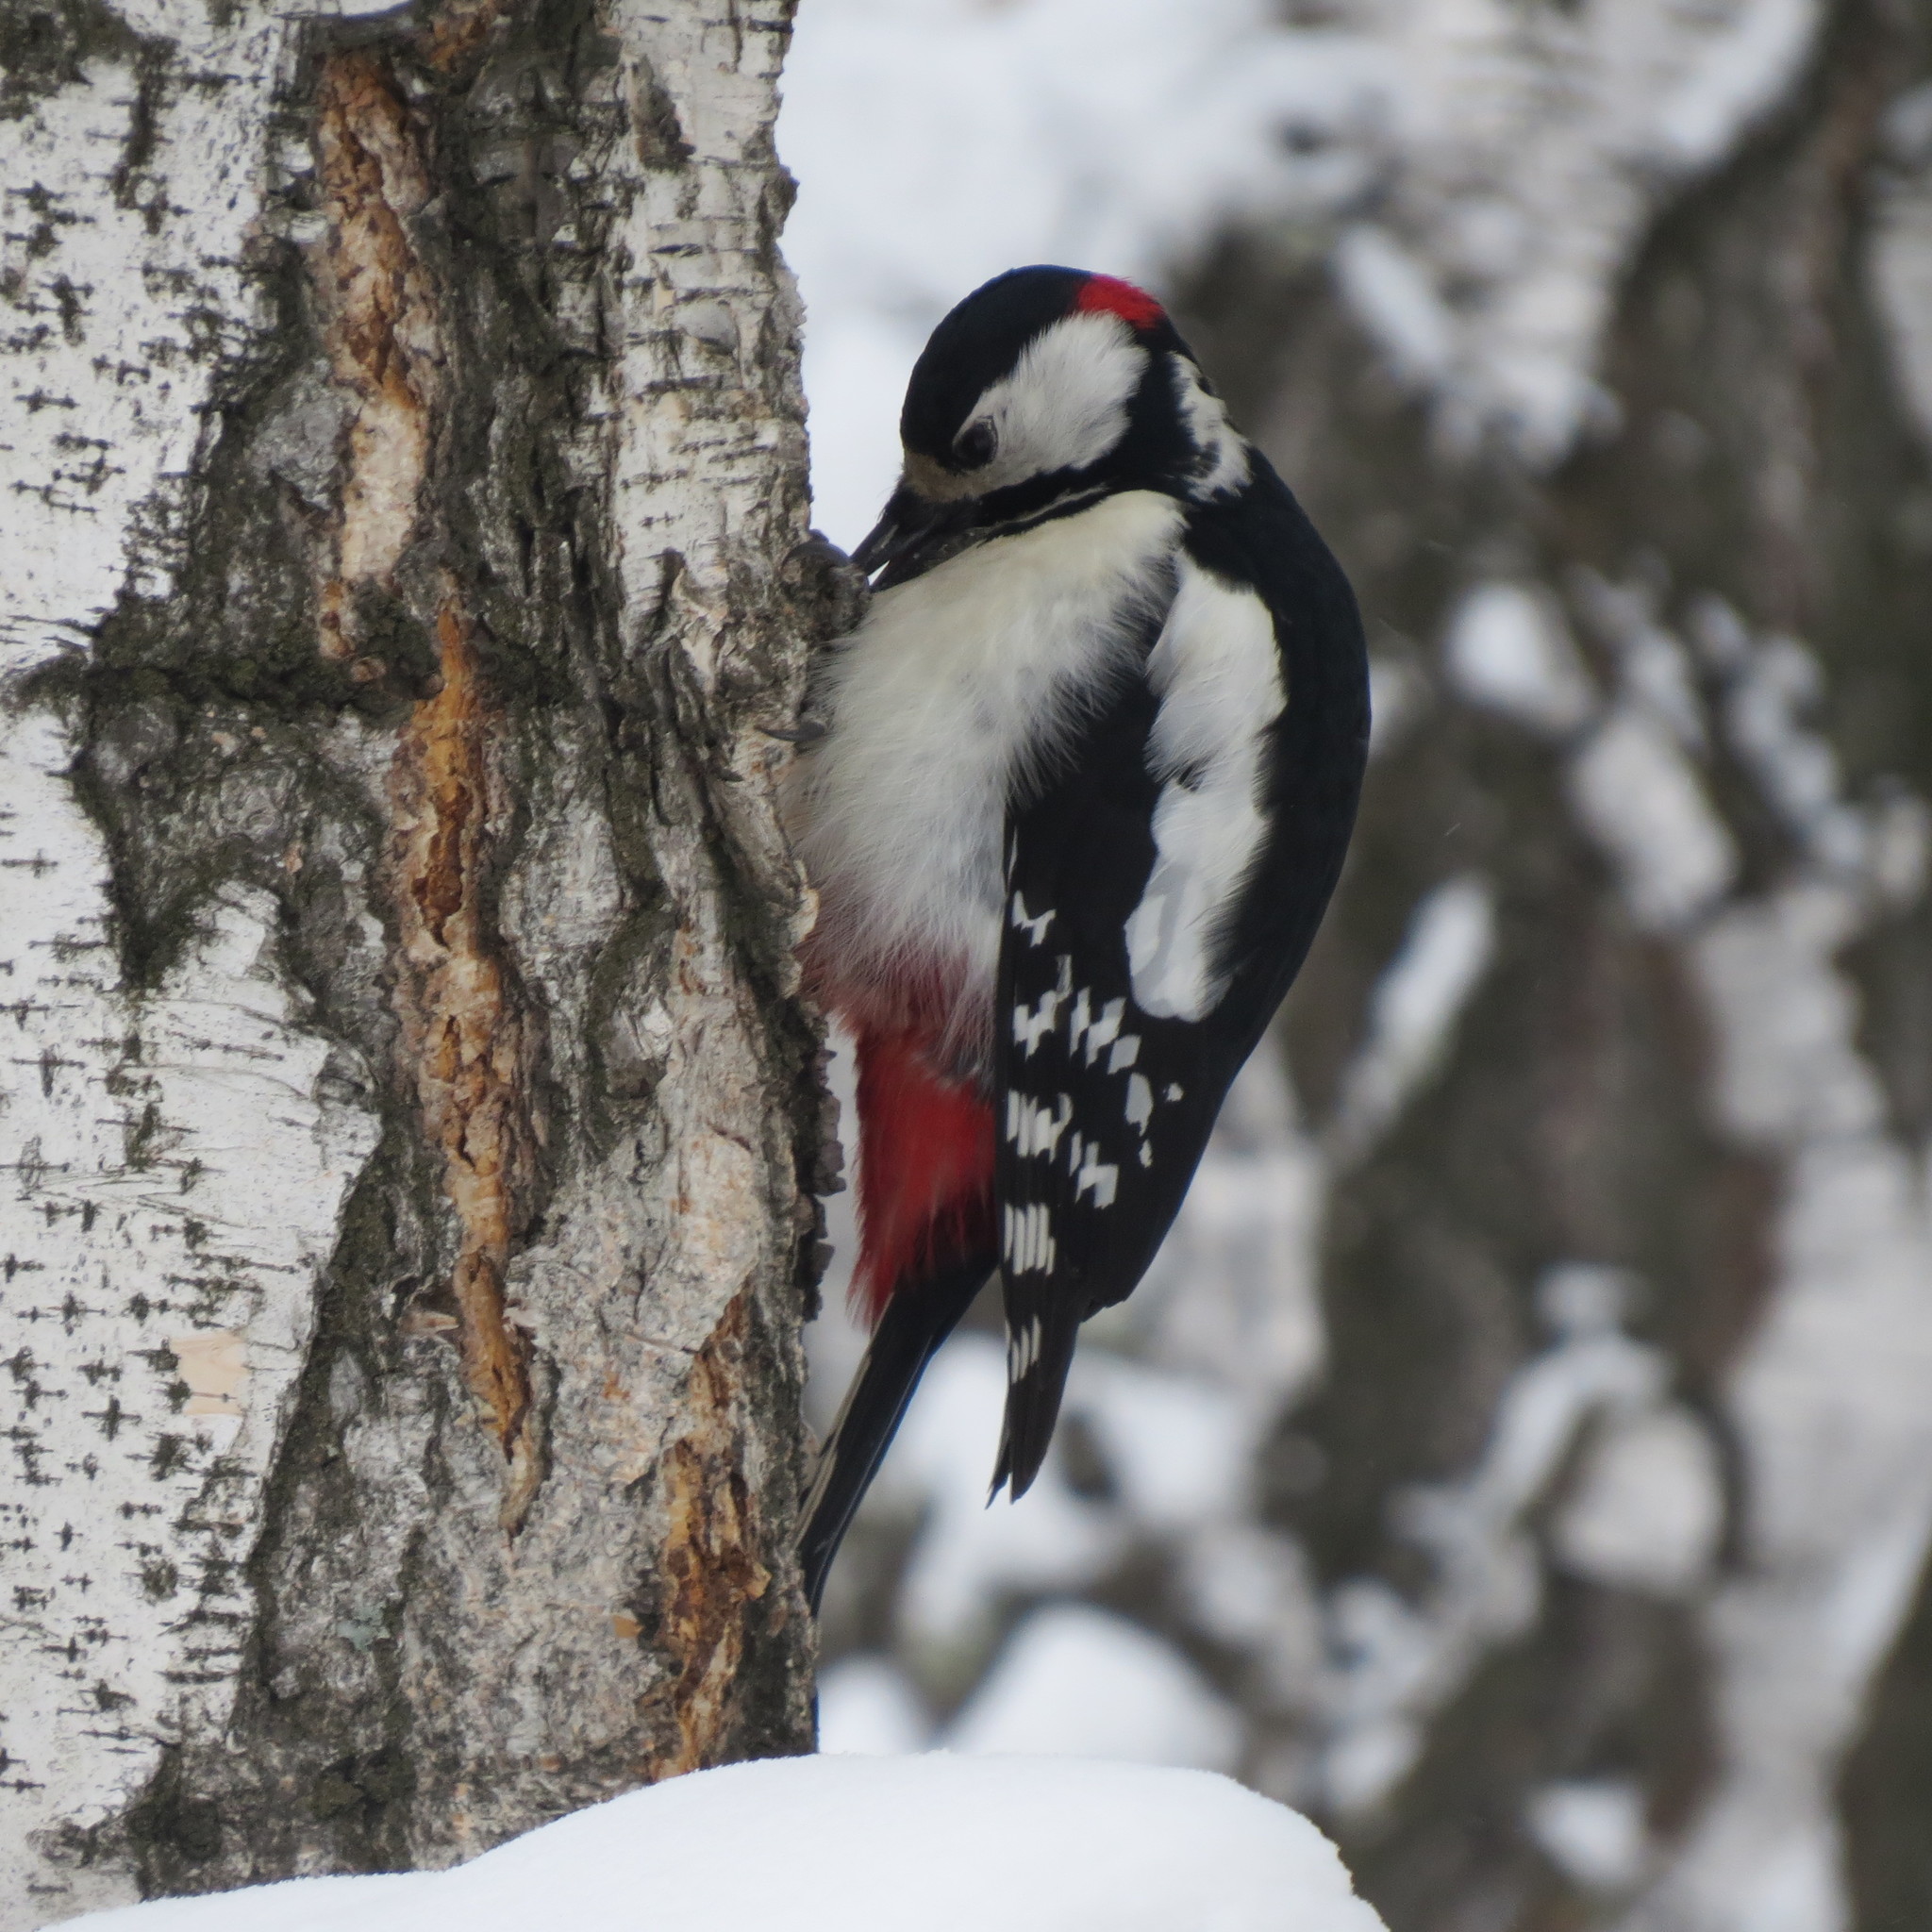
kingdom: Animalia
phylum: Chordata
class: Aves
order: Piciformes
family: Picidae
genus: Dendrocopos
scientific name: Dendrocopos major
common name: Great spotted woodpecker
